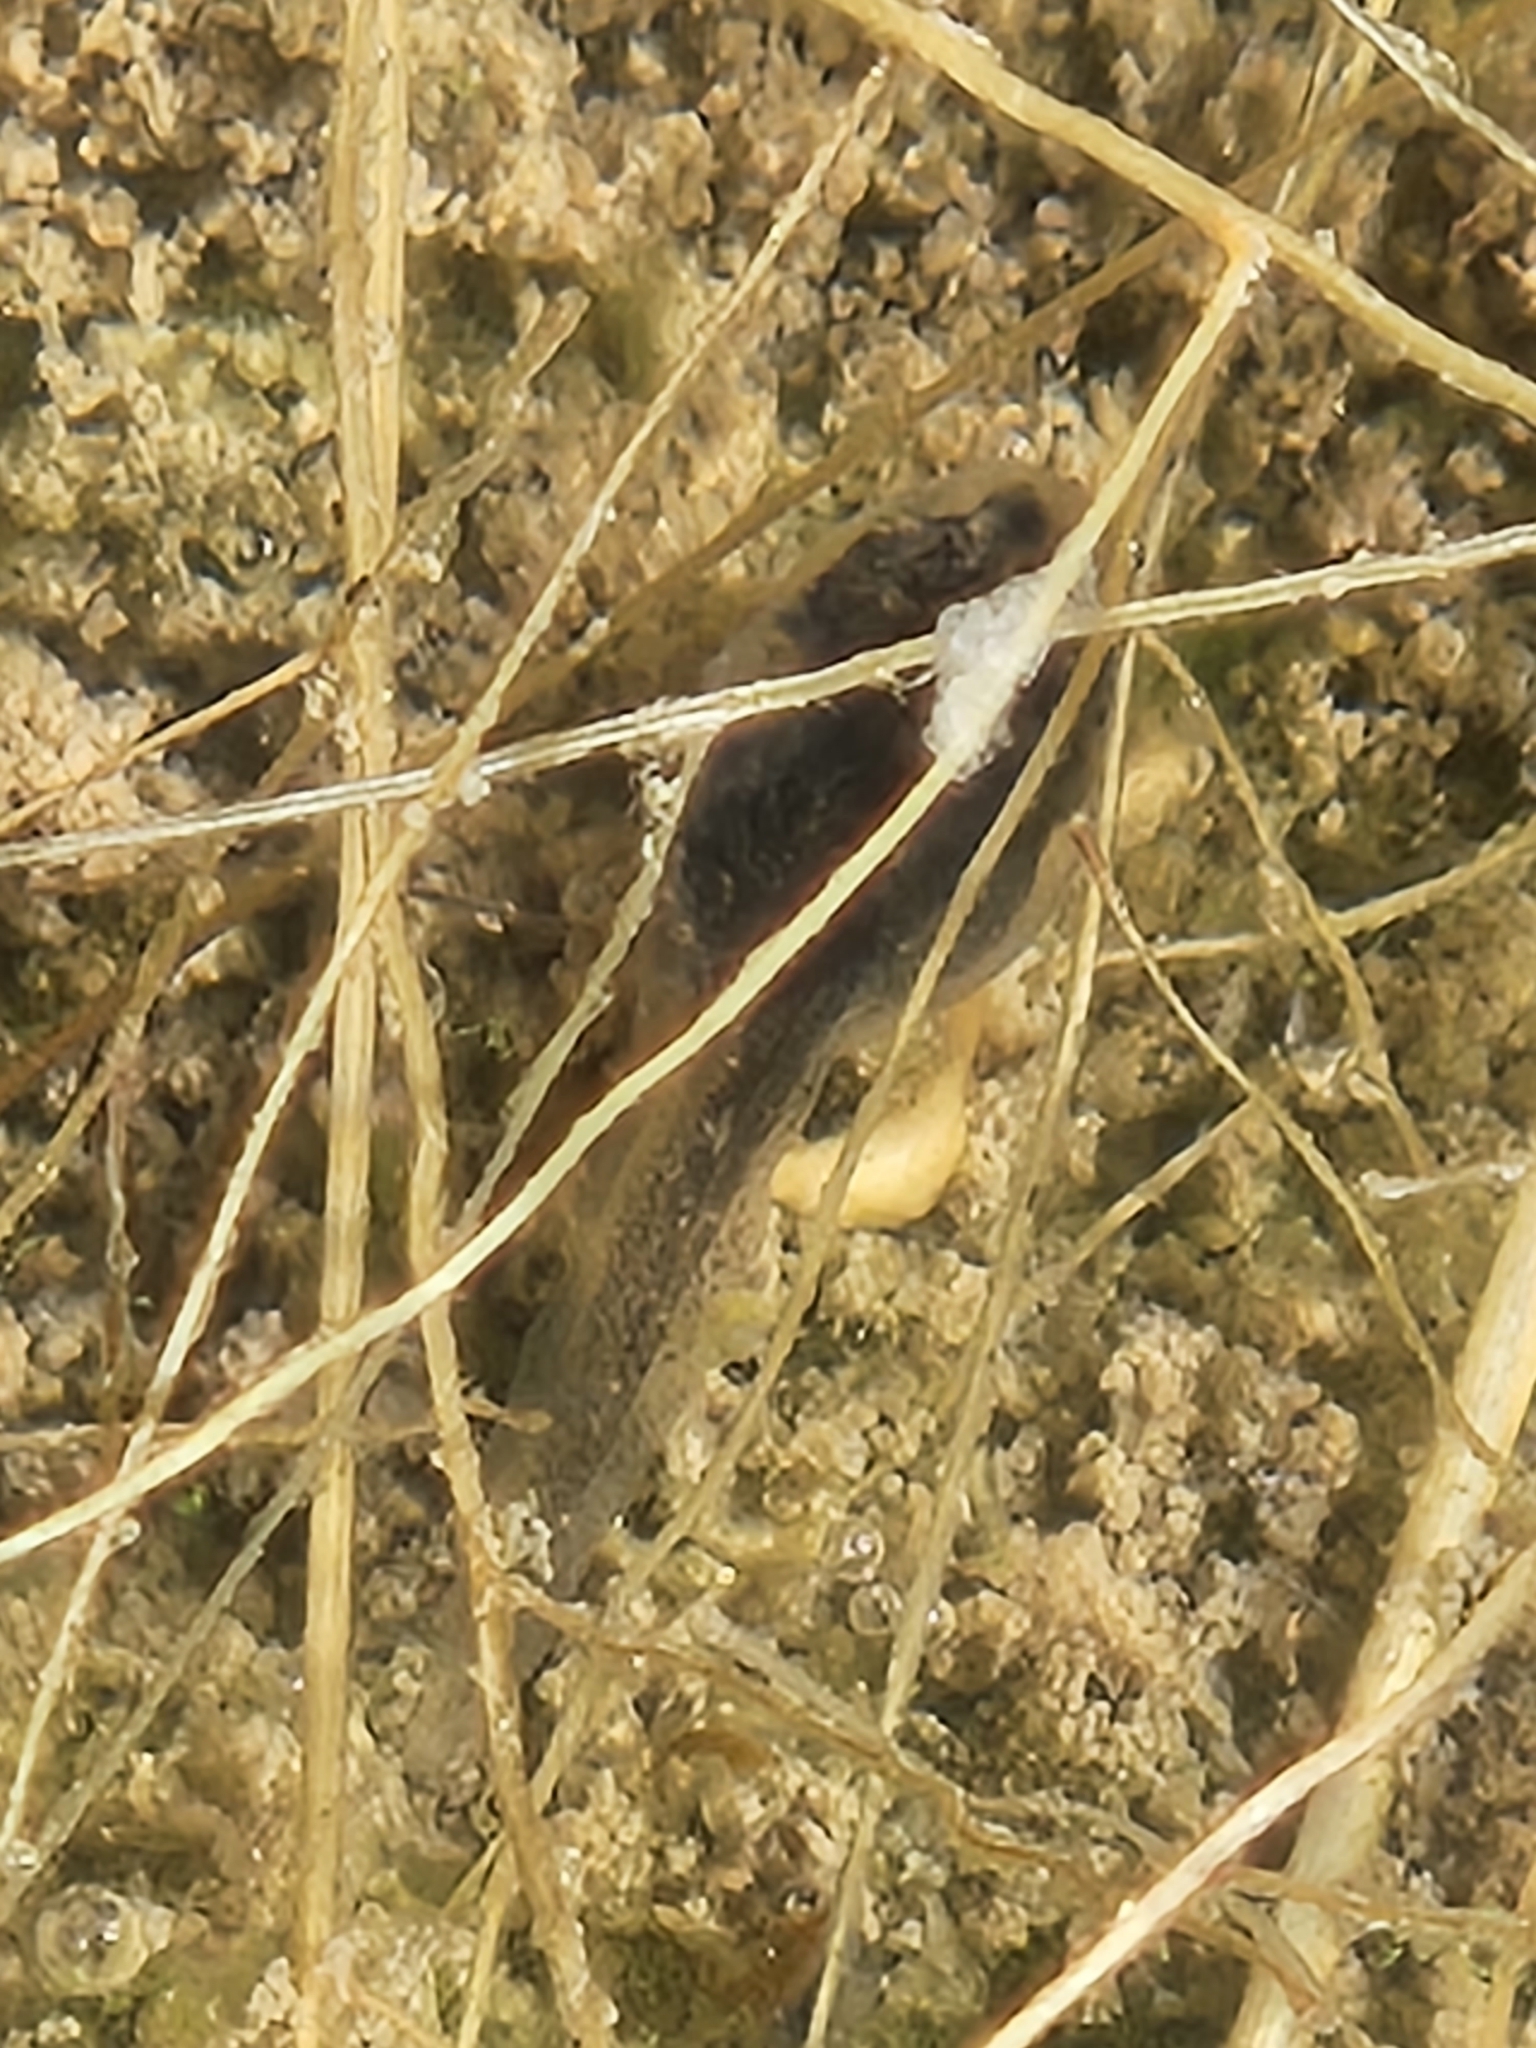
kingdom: Animalia
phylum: Chordata
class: Amphibia
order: Anura
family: Ranidae
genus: Lithobates
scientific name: Lithobates berlandieri
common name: Rio grande leopard frog
